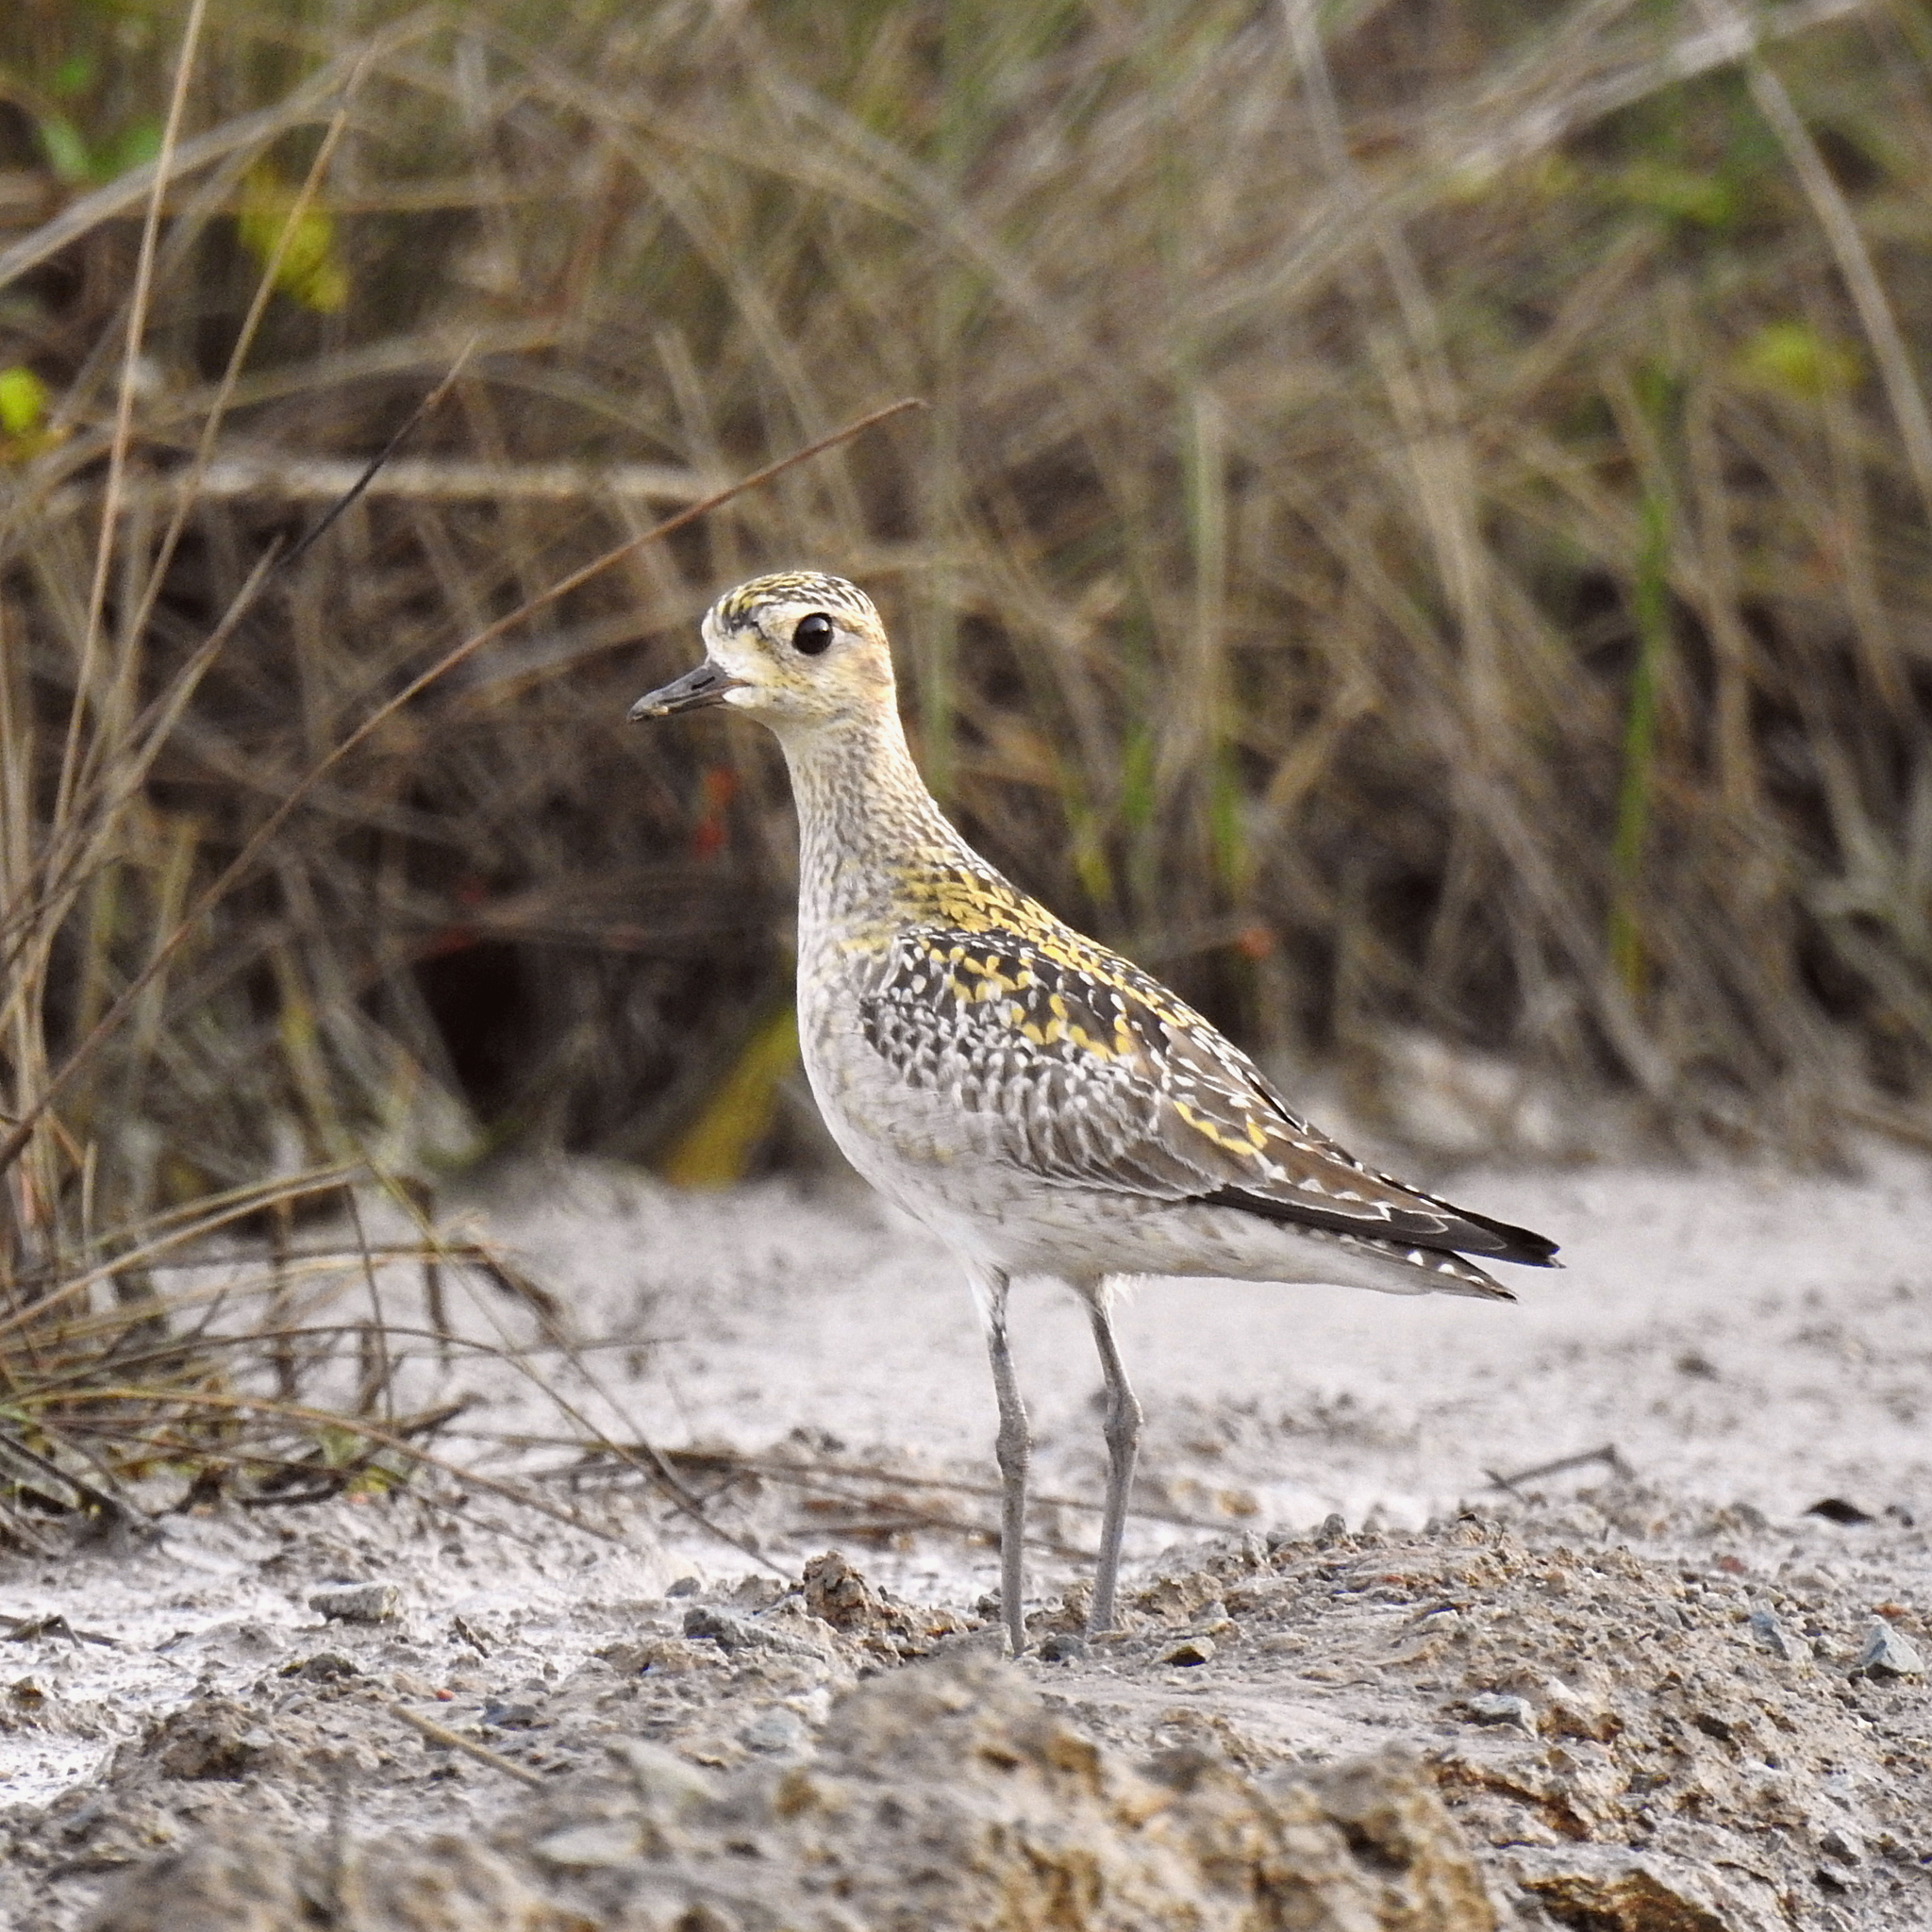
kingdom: Animalia
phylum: Chordata
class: Aves
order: Charadriiformes
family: Charadriidae
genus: Pluvialis
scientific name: Pluvialis fulva
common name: Pacific golden plover
